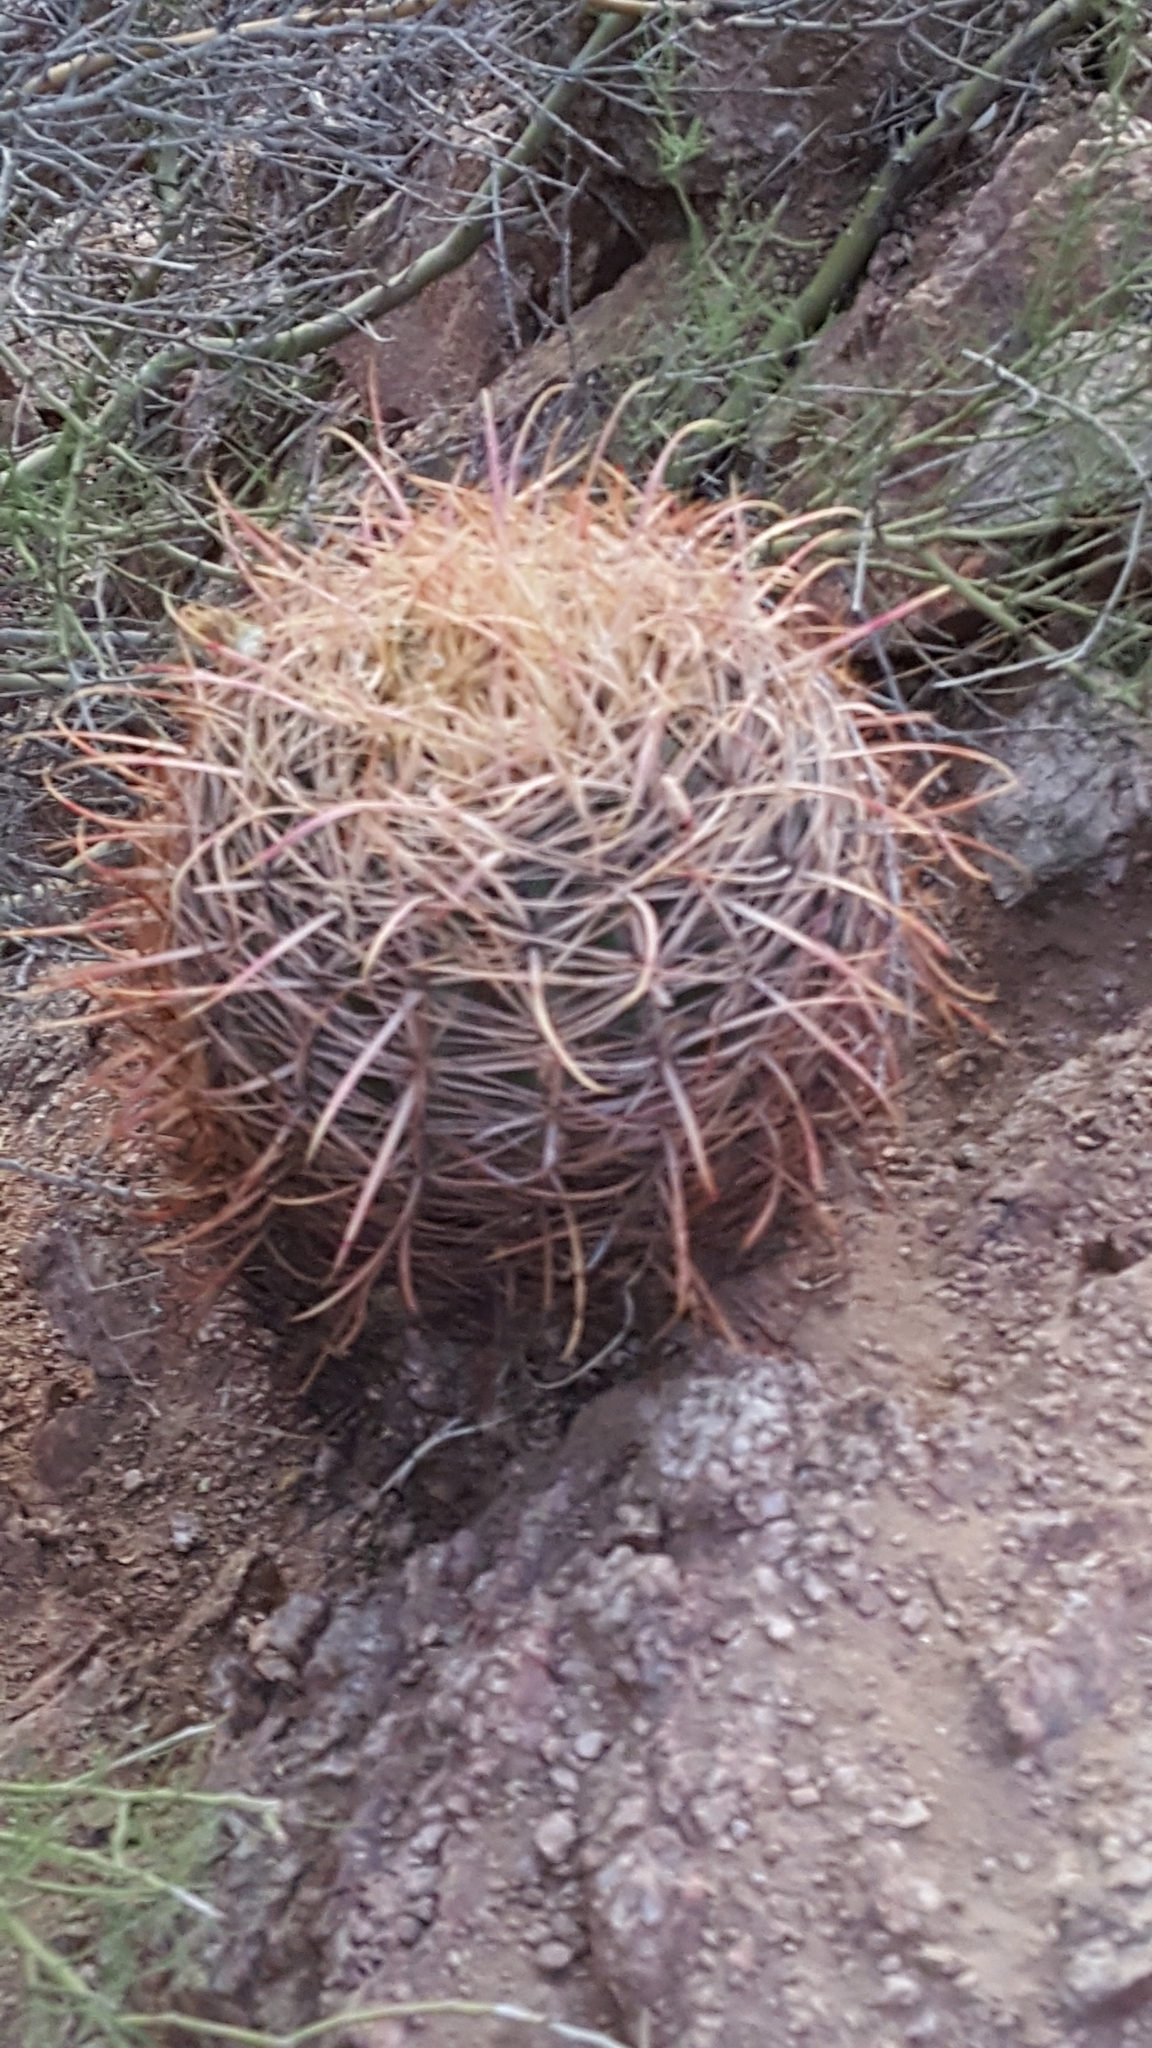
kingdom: Plantae
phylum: Tracheophyta
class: Magnoliopsida
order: Caryophyllales
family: Cactaceae
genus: Ferocactus
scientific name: Ferocactus cylindraceus
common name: California barrel cactus
